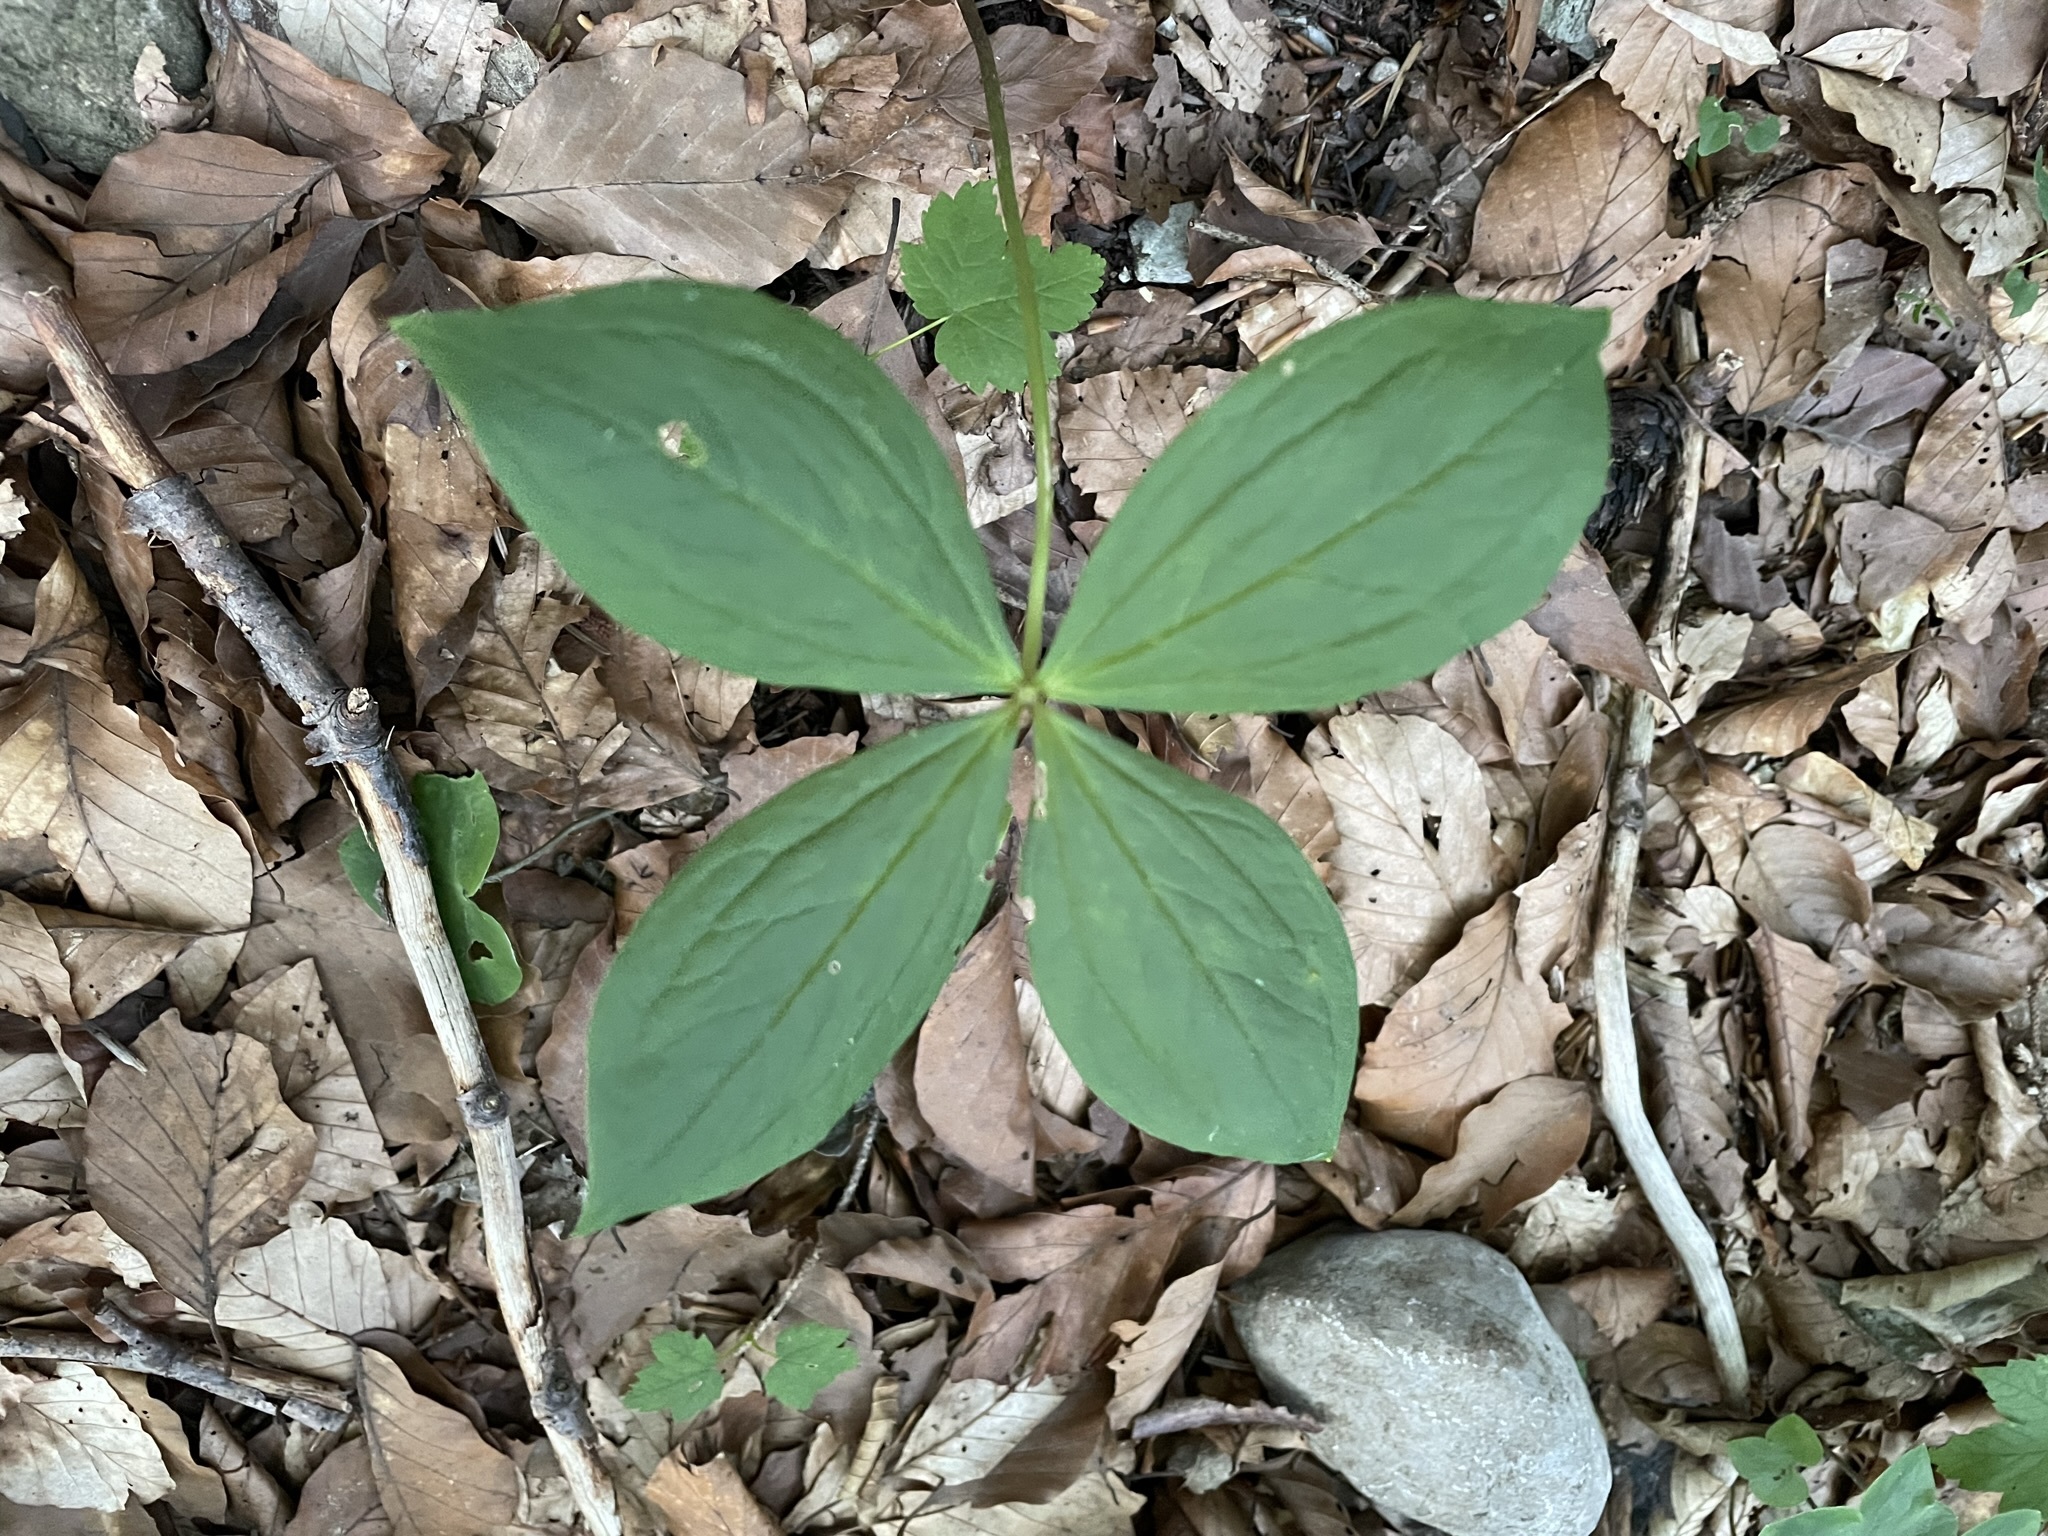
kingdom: Plantae
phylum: Tracheophyta
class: Liliopsida
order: Liliales
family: Melanthiaceae
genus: Paris
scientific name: Paris quadrifolia
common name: Herb-paris
